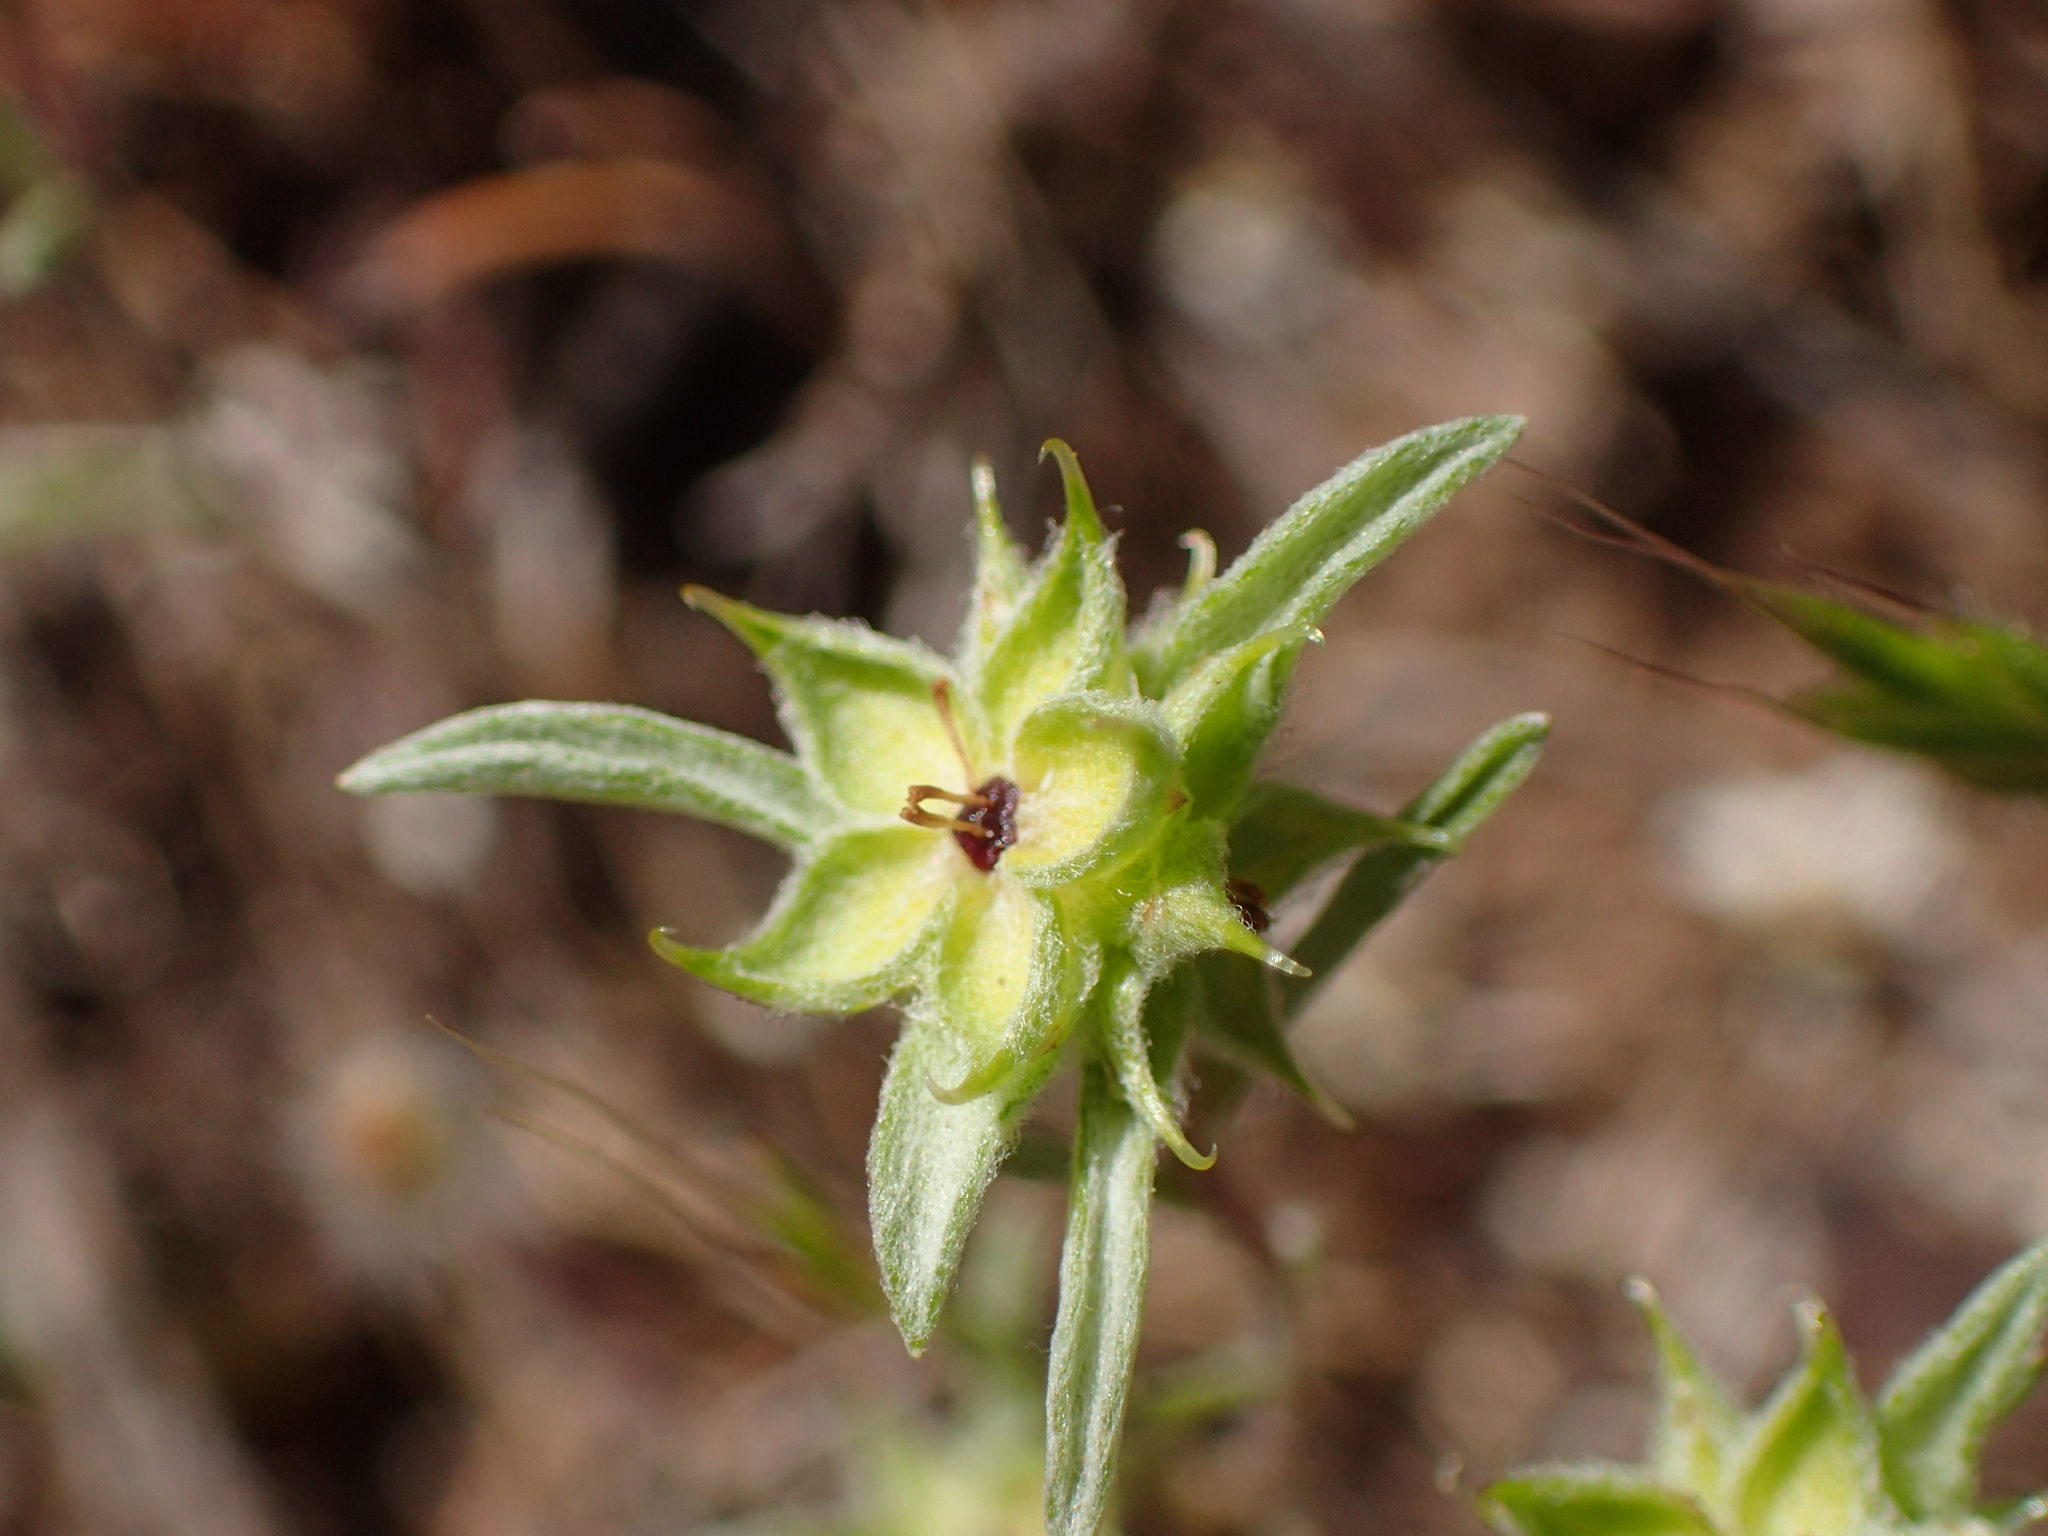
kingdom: Plantae
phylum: Tracheophyta
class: Magnoliopsida
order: Asterales
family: Asteraceae
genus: Ancistrocarphus
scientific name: Ancistrocarphus filagineus
